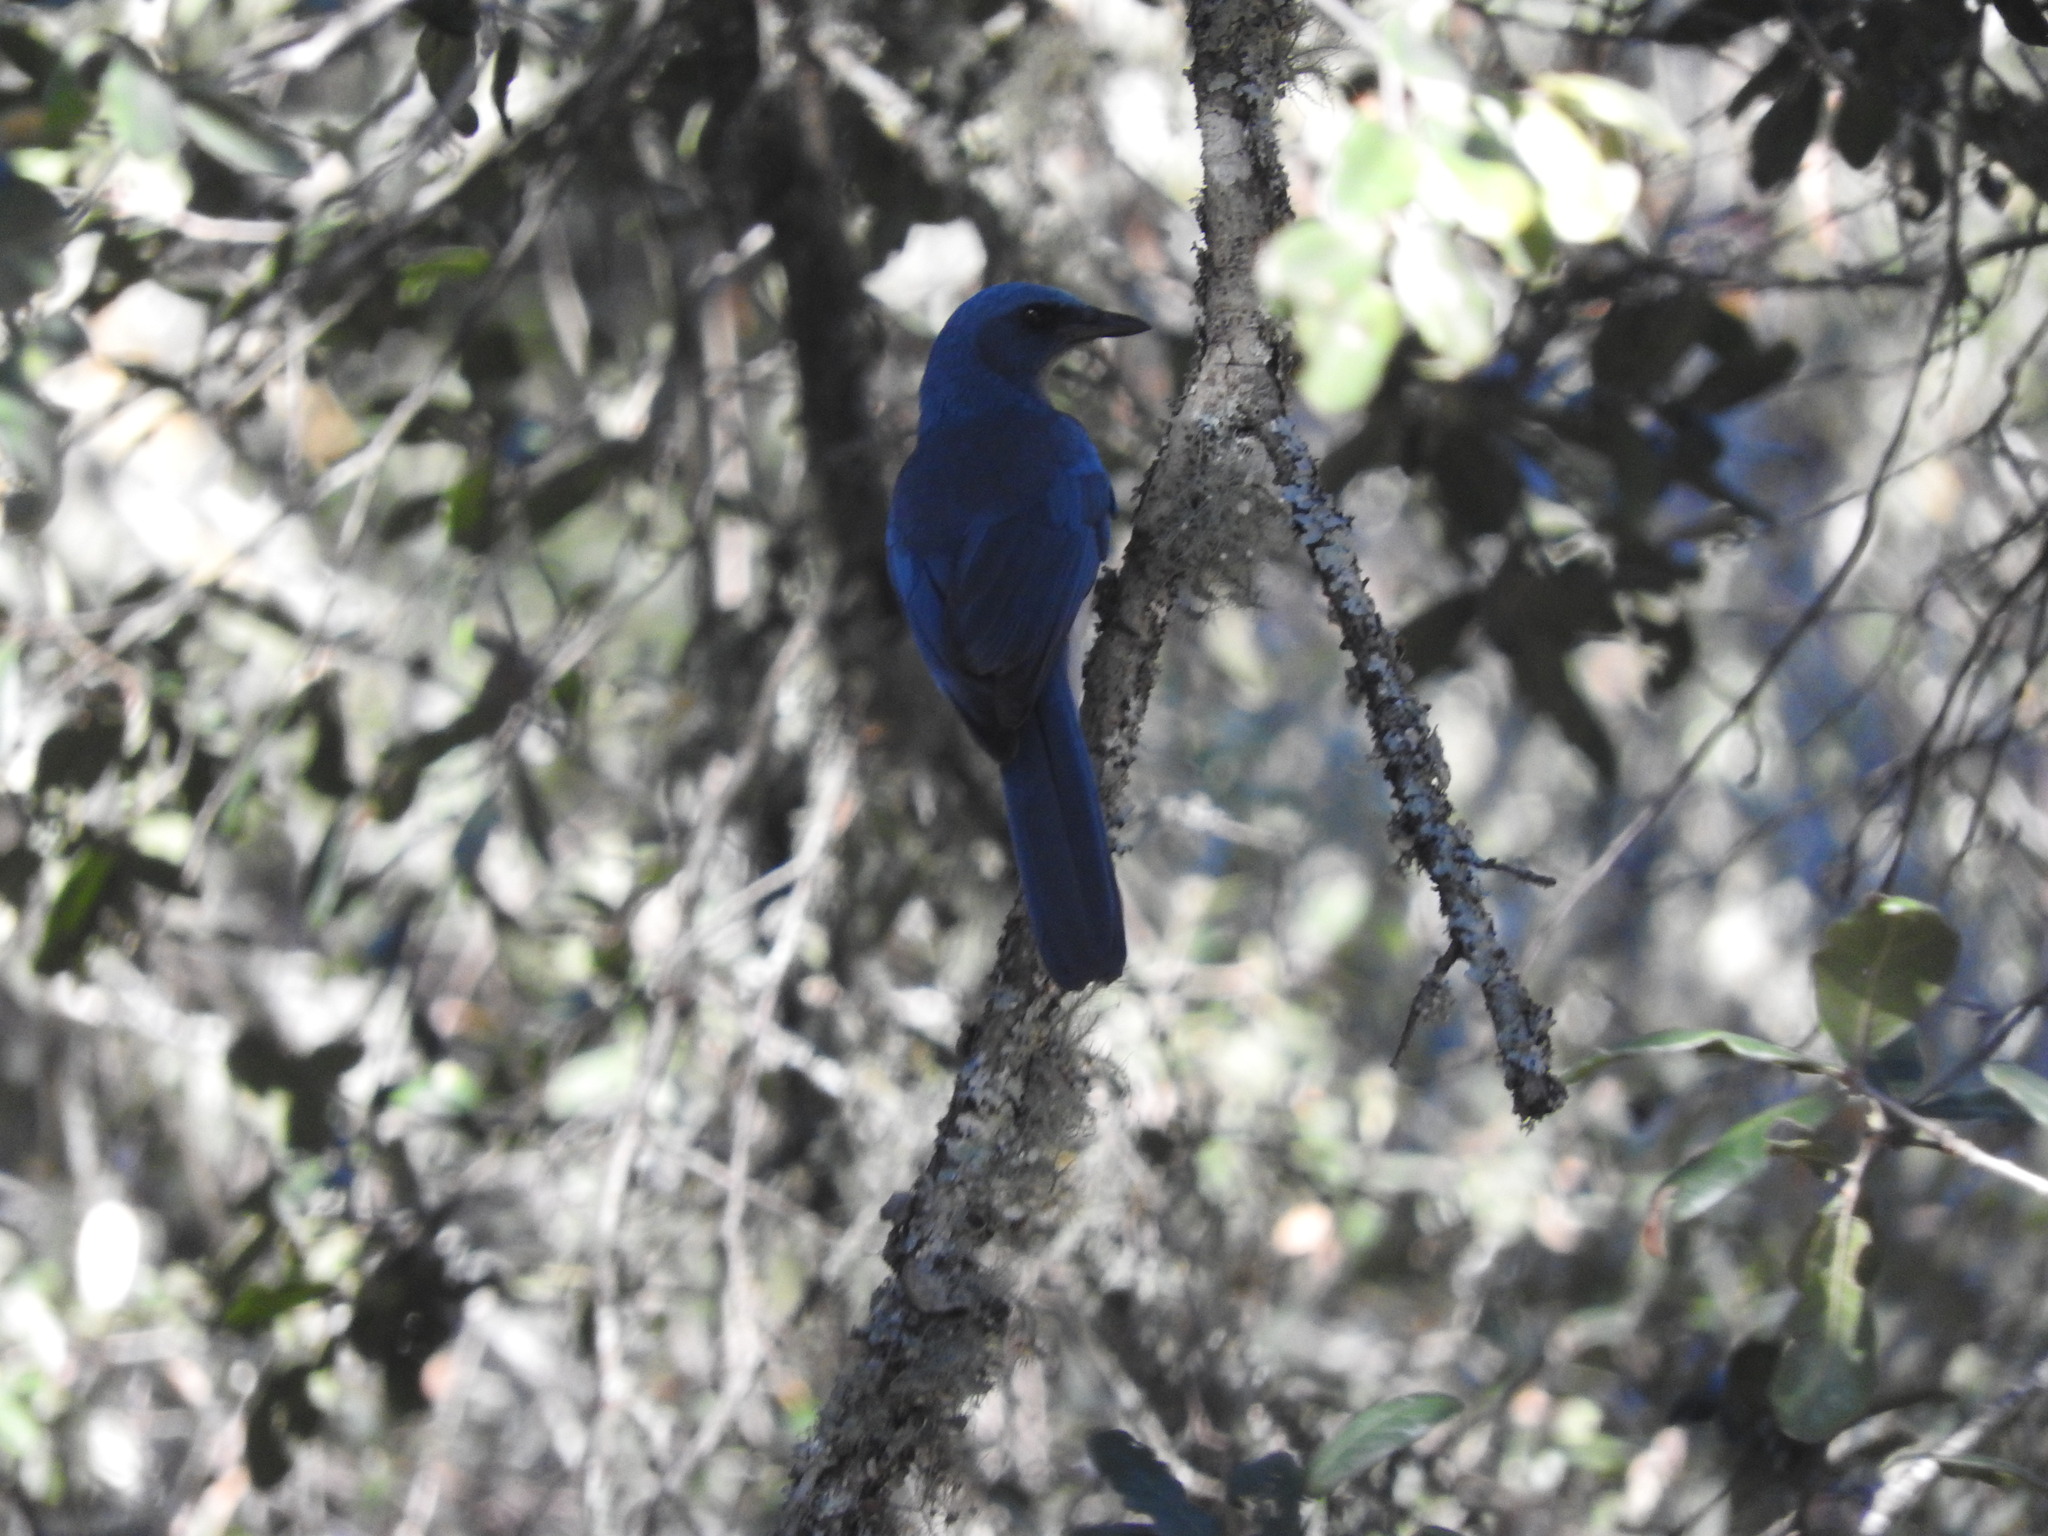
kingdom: Animalia
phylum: Chordata
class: Aves
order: Passeriformes
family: Corvidae
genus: Aphelocoma
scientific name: Aphelocoma wollweberi
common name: Mexican jay
